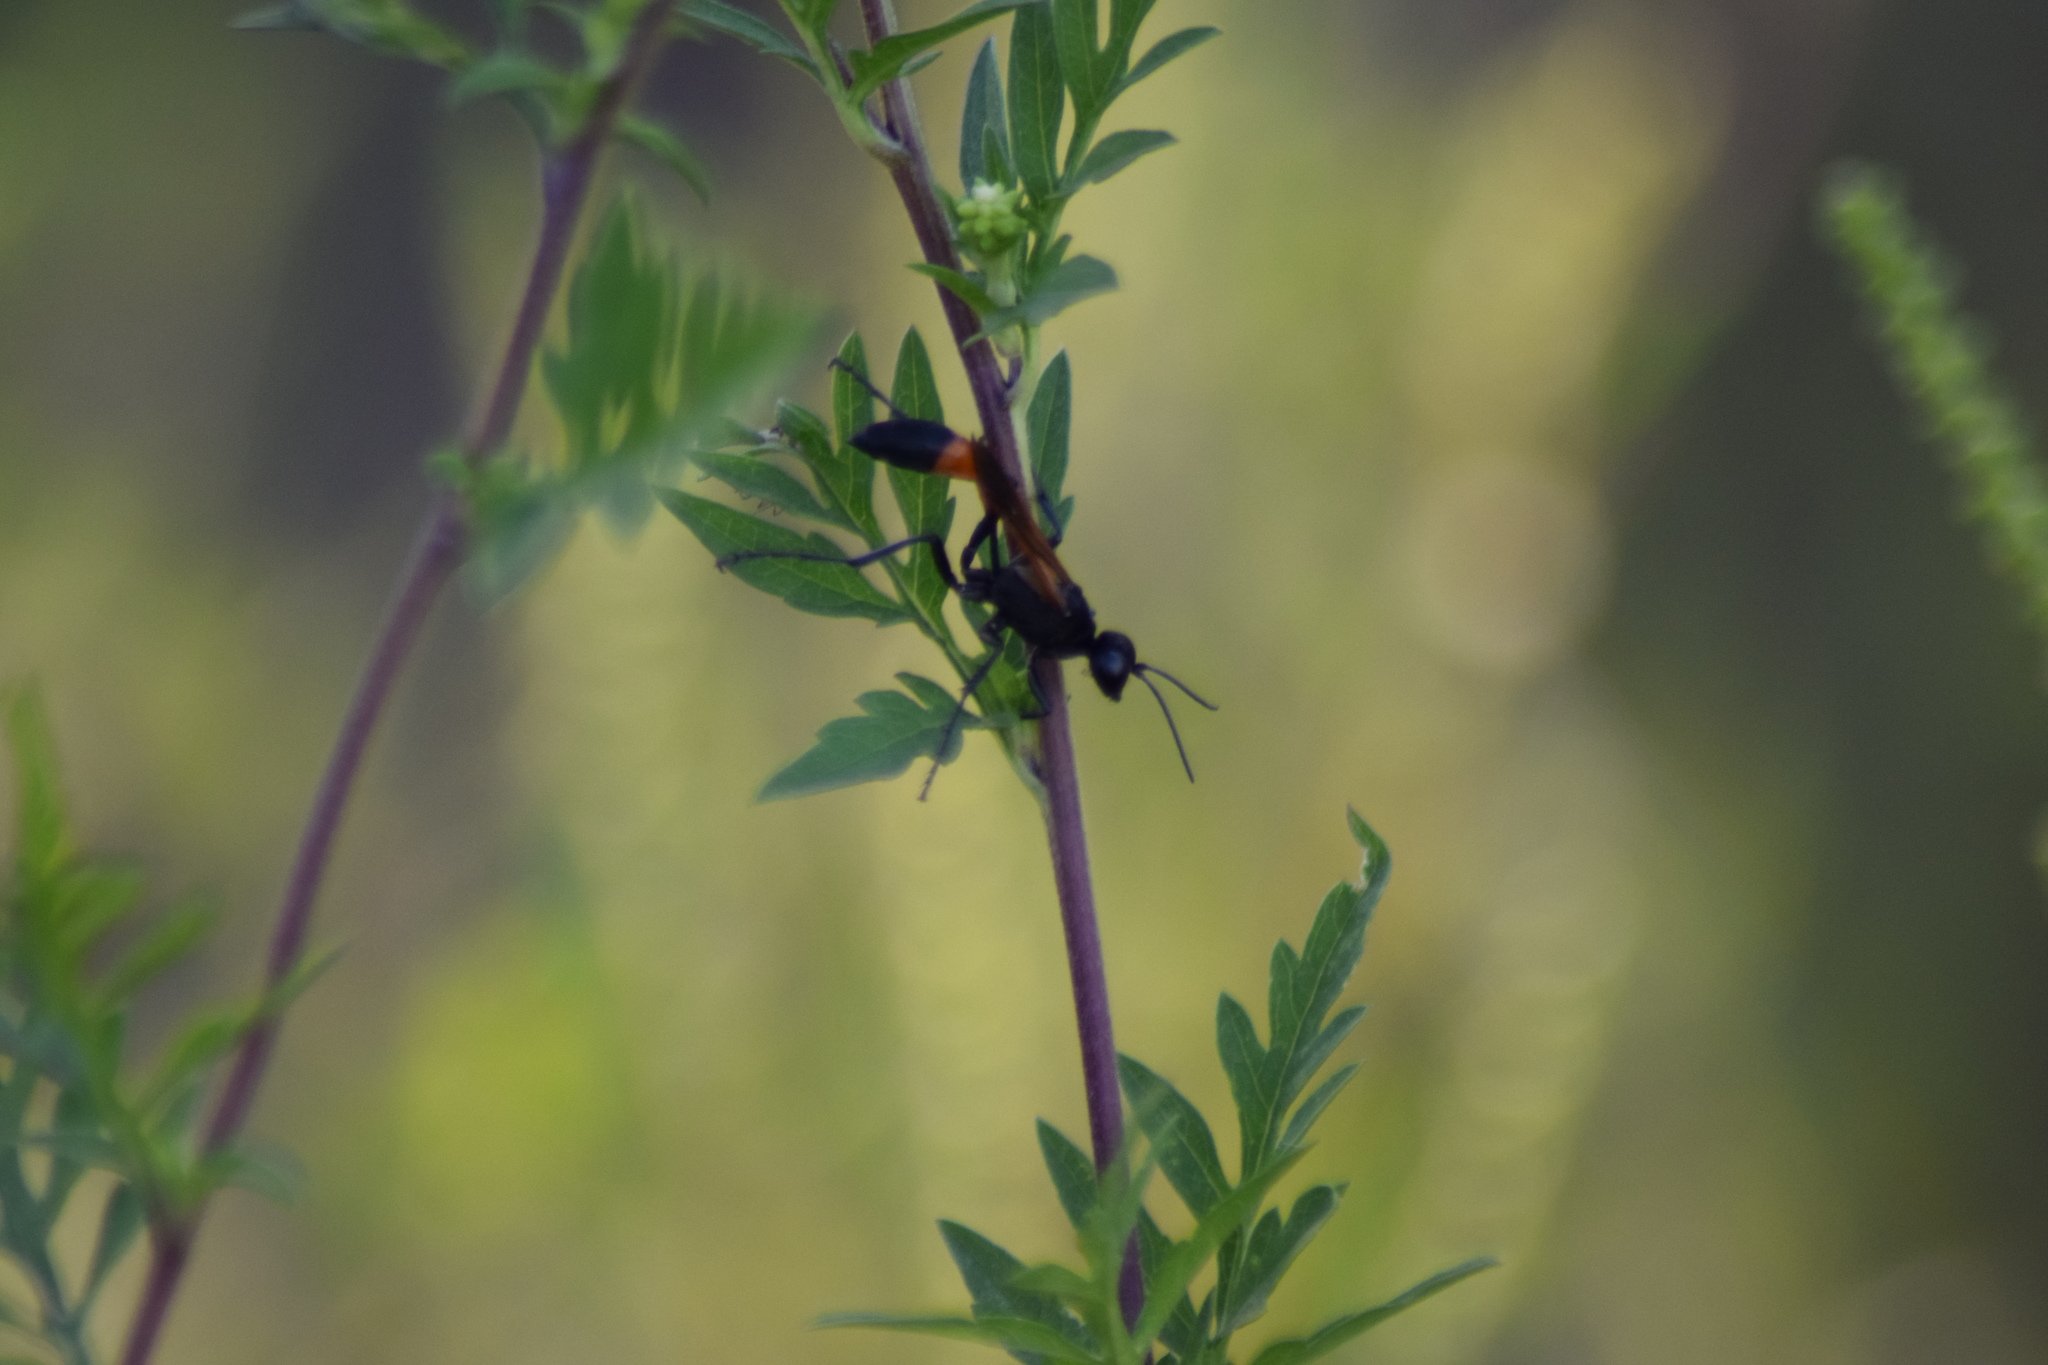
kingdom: Animalia
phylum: Arthropoda
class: Insecta
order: Hymenoptera
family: Sphecidae
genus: Ammophila
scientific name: Ammophila pictipennis
